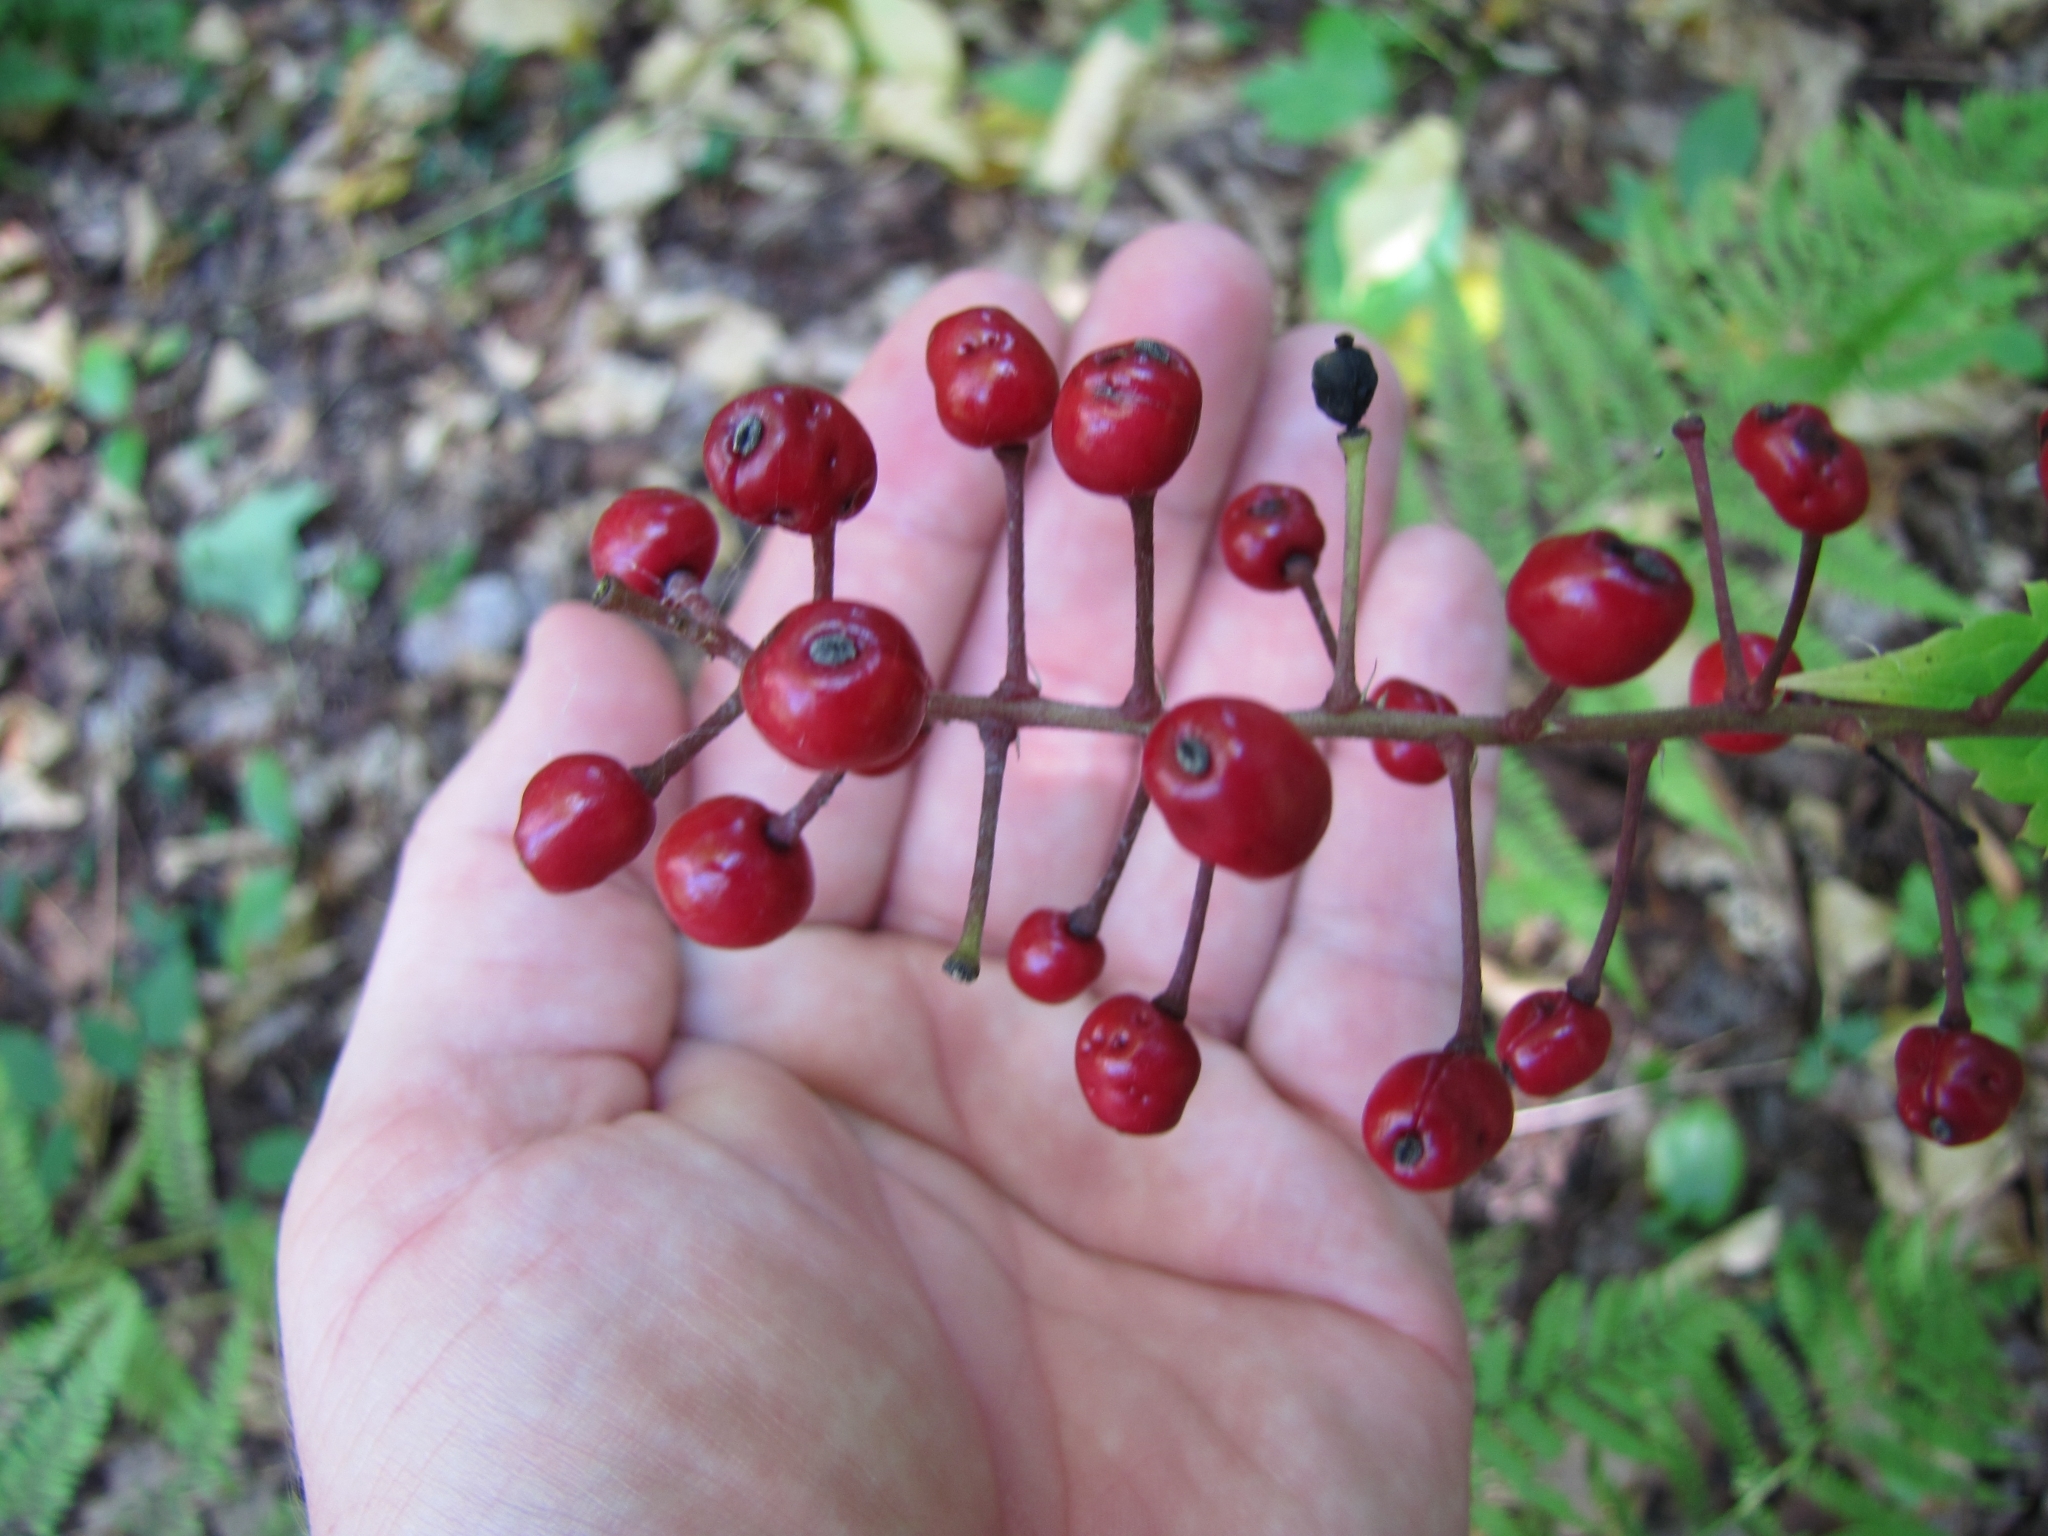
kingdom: Plantae
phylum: Tracheophyta
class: Magnoliopsida
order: Ranunculales
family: Ranunculaceae
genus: Actaea
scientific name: Actaea ludovici
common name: Ludovic's baneberry
